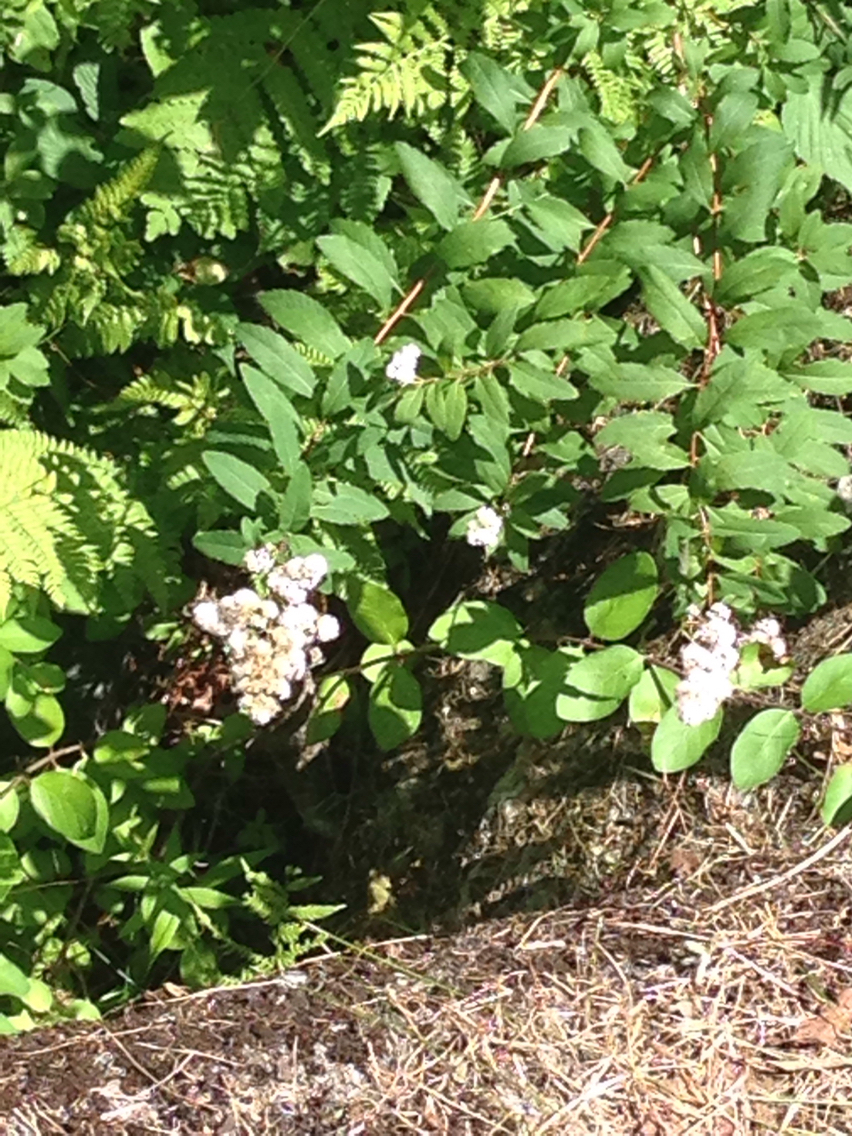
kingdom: Plantae
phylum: Tracheophyta
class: Magnoliopsida
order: Rosales
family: Rosaceae
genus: Spiraea
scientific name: Spiraea alba
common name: Pale bridewort
